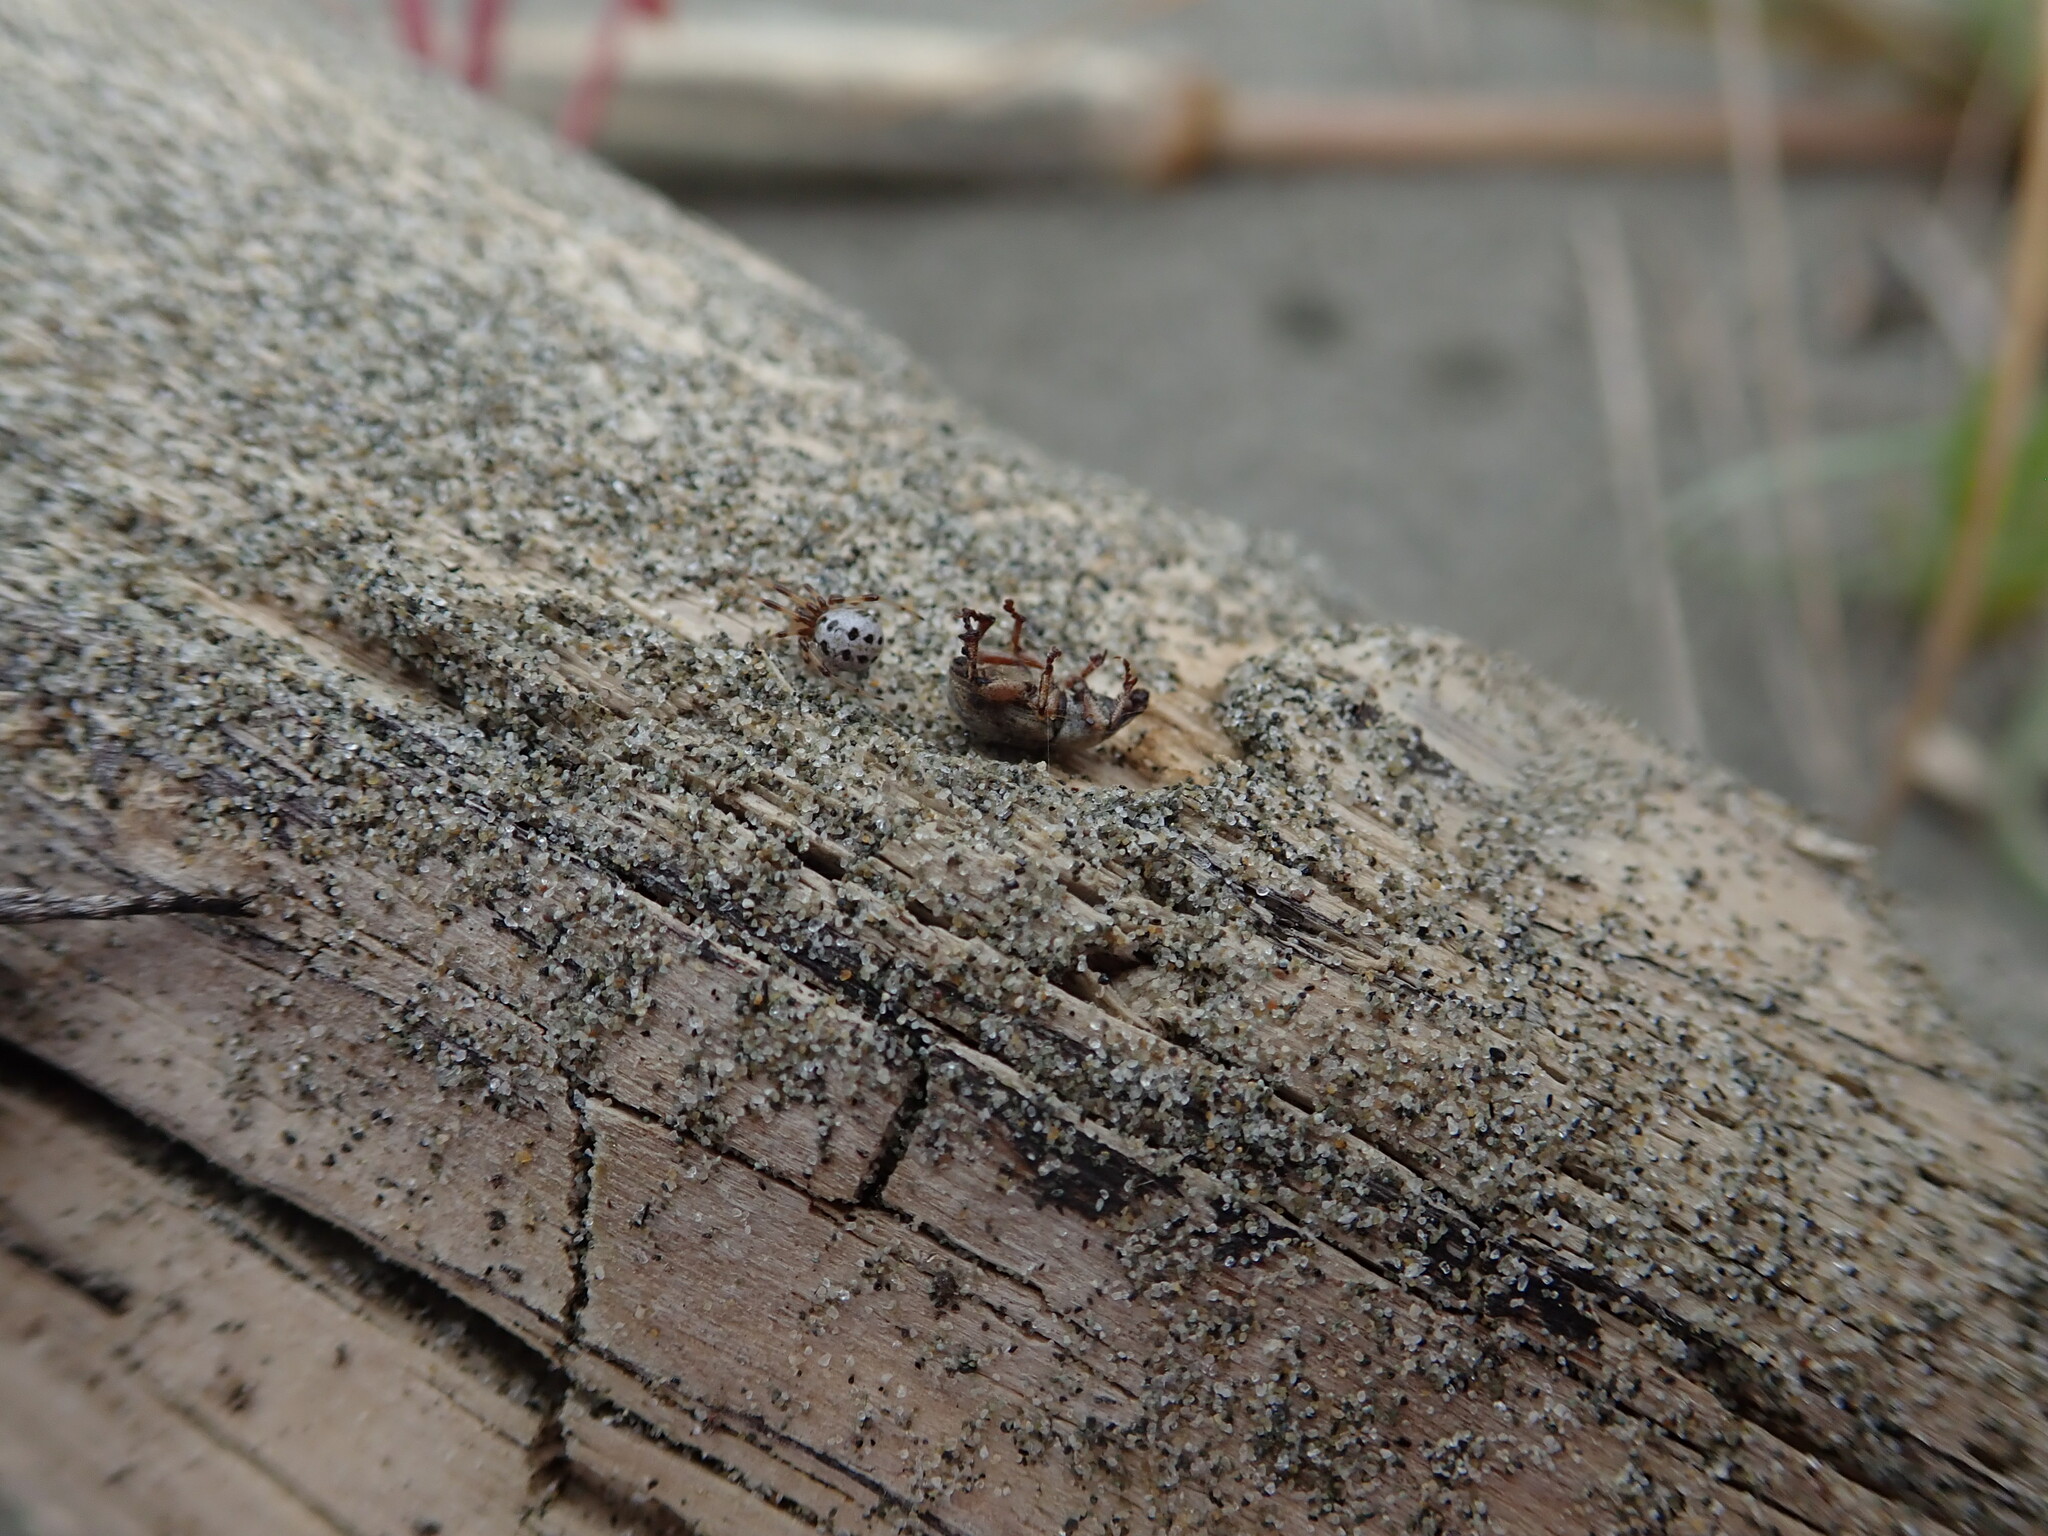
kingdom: Animalia
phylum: Arthropoda
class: Arachnida
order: Araneae
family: Theridiidae
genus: Latrodectus
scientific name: Latrodectus katipo
